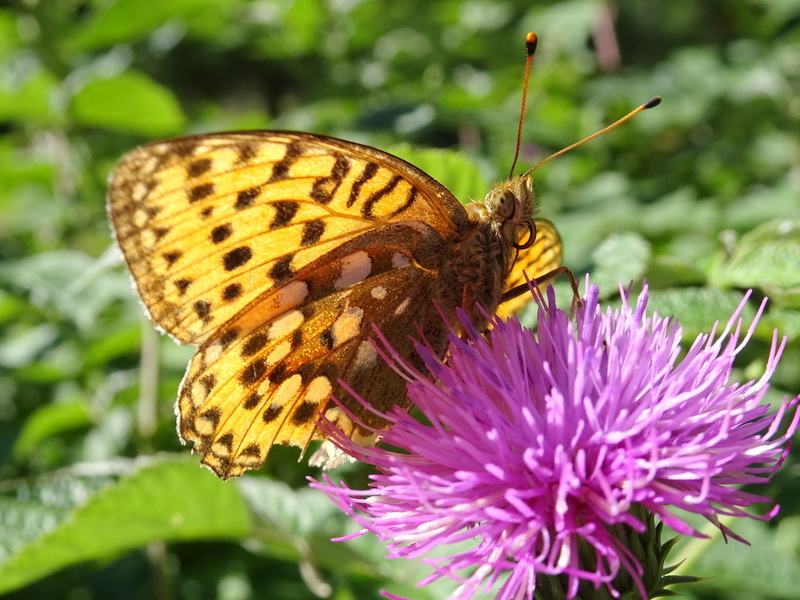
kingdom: Animalia
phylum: Arthropoda
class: Insecta
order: Lepidoptera
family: Nymphalidae
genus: Speyeria
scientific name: Speyeria aglaja
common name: Dark green fritillary
